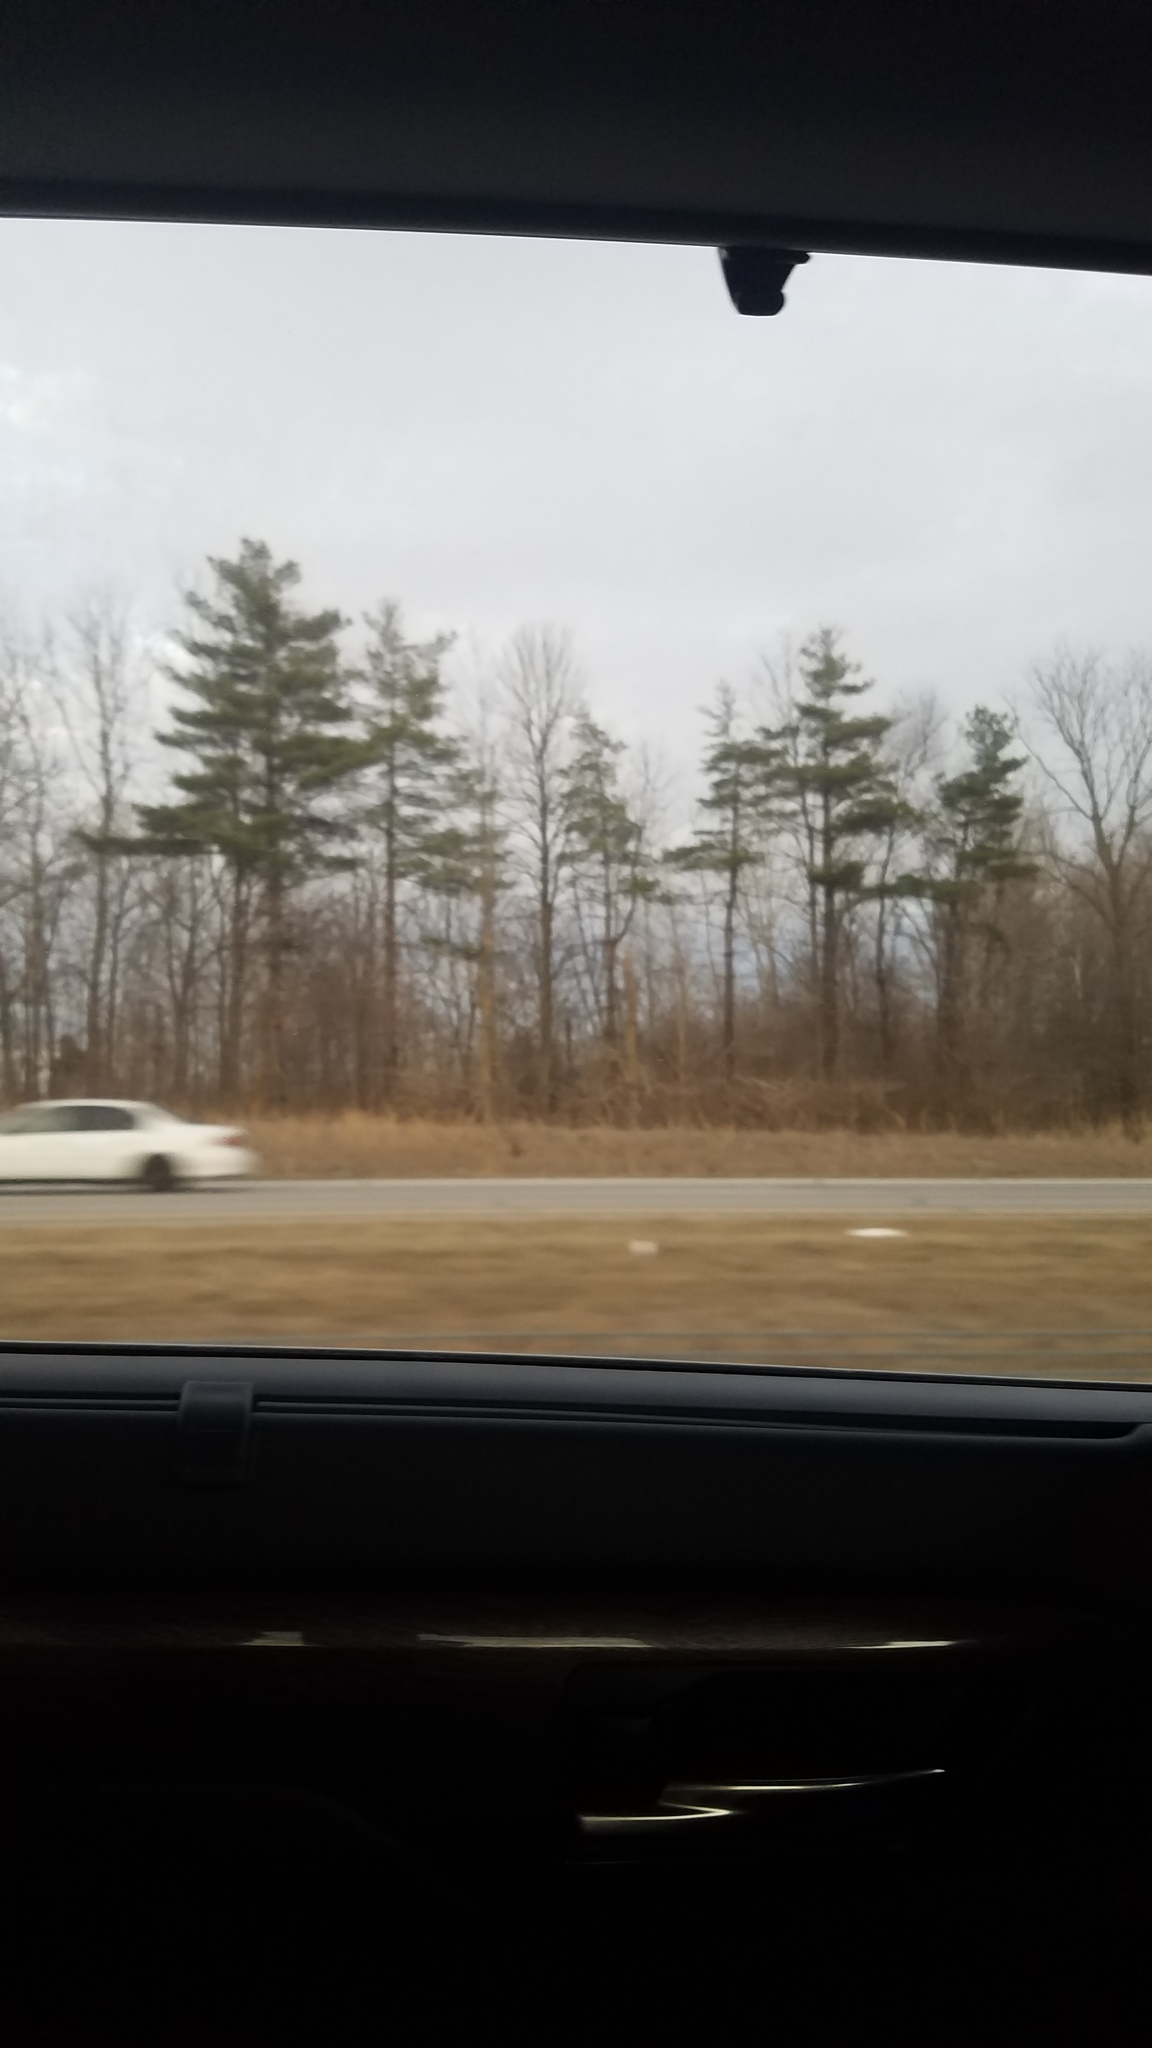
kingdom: Plantae
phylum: Tracheophyta
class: Pinopsida
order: Pinales
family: Pinaceae
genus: Pinus
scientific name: Pinus strobus
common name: Weymouth pine
